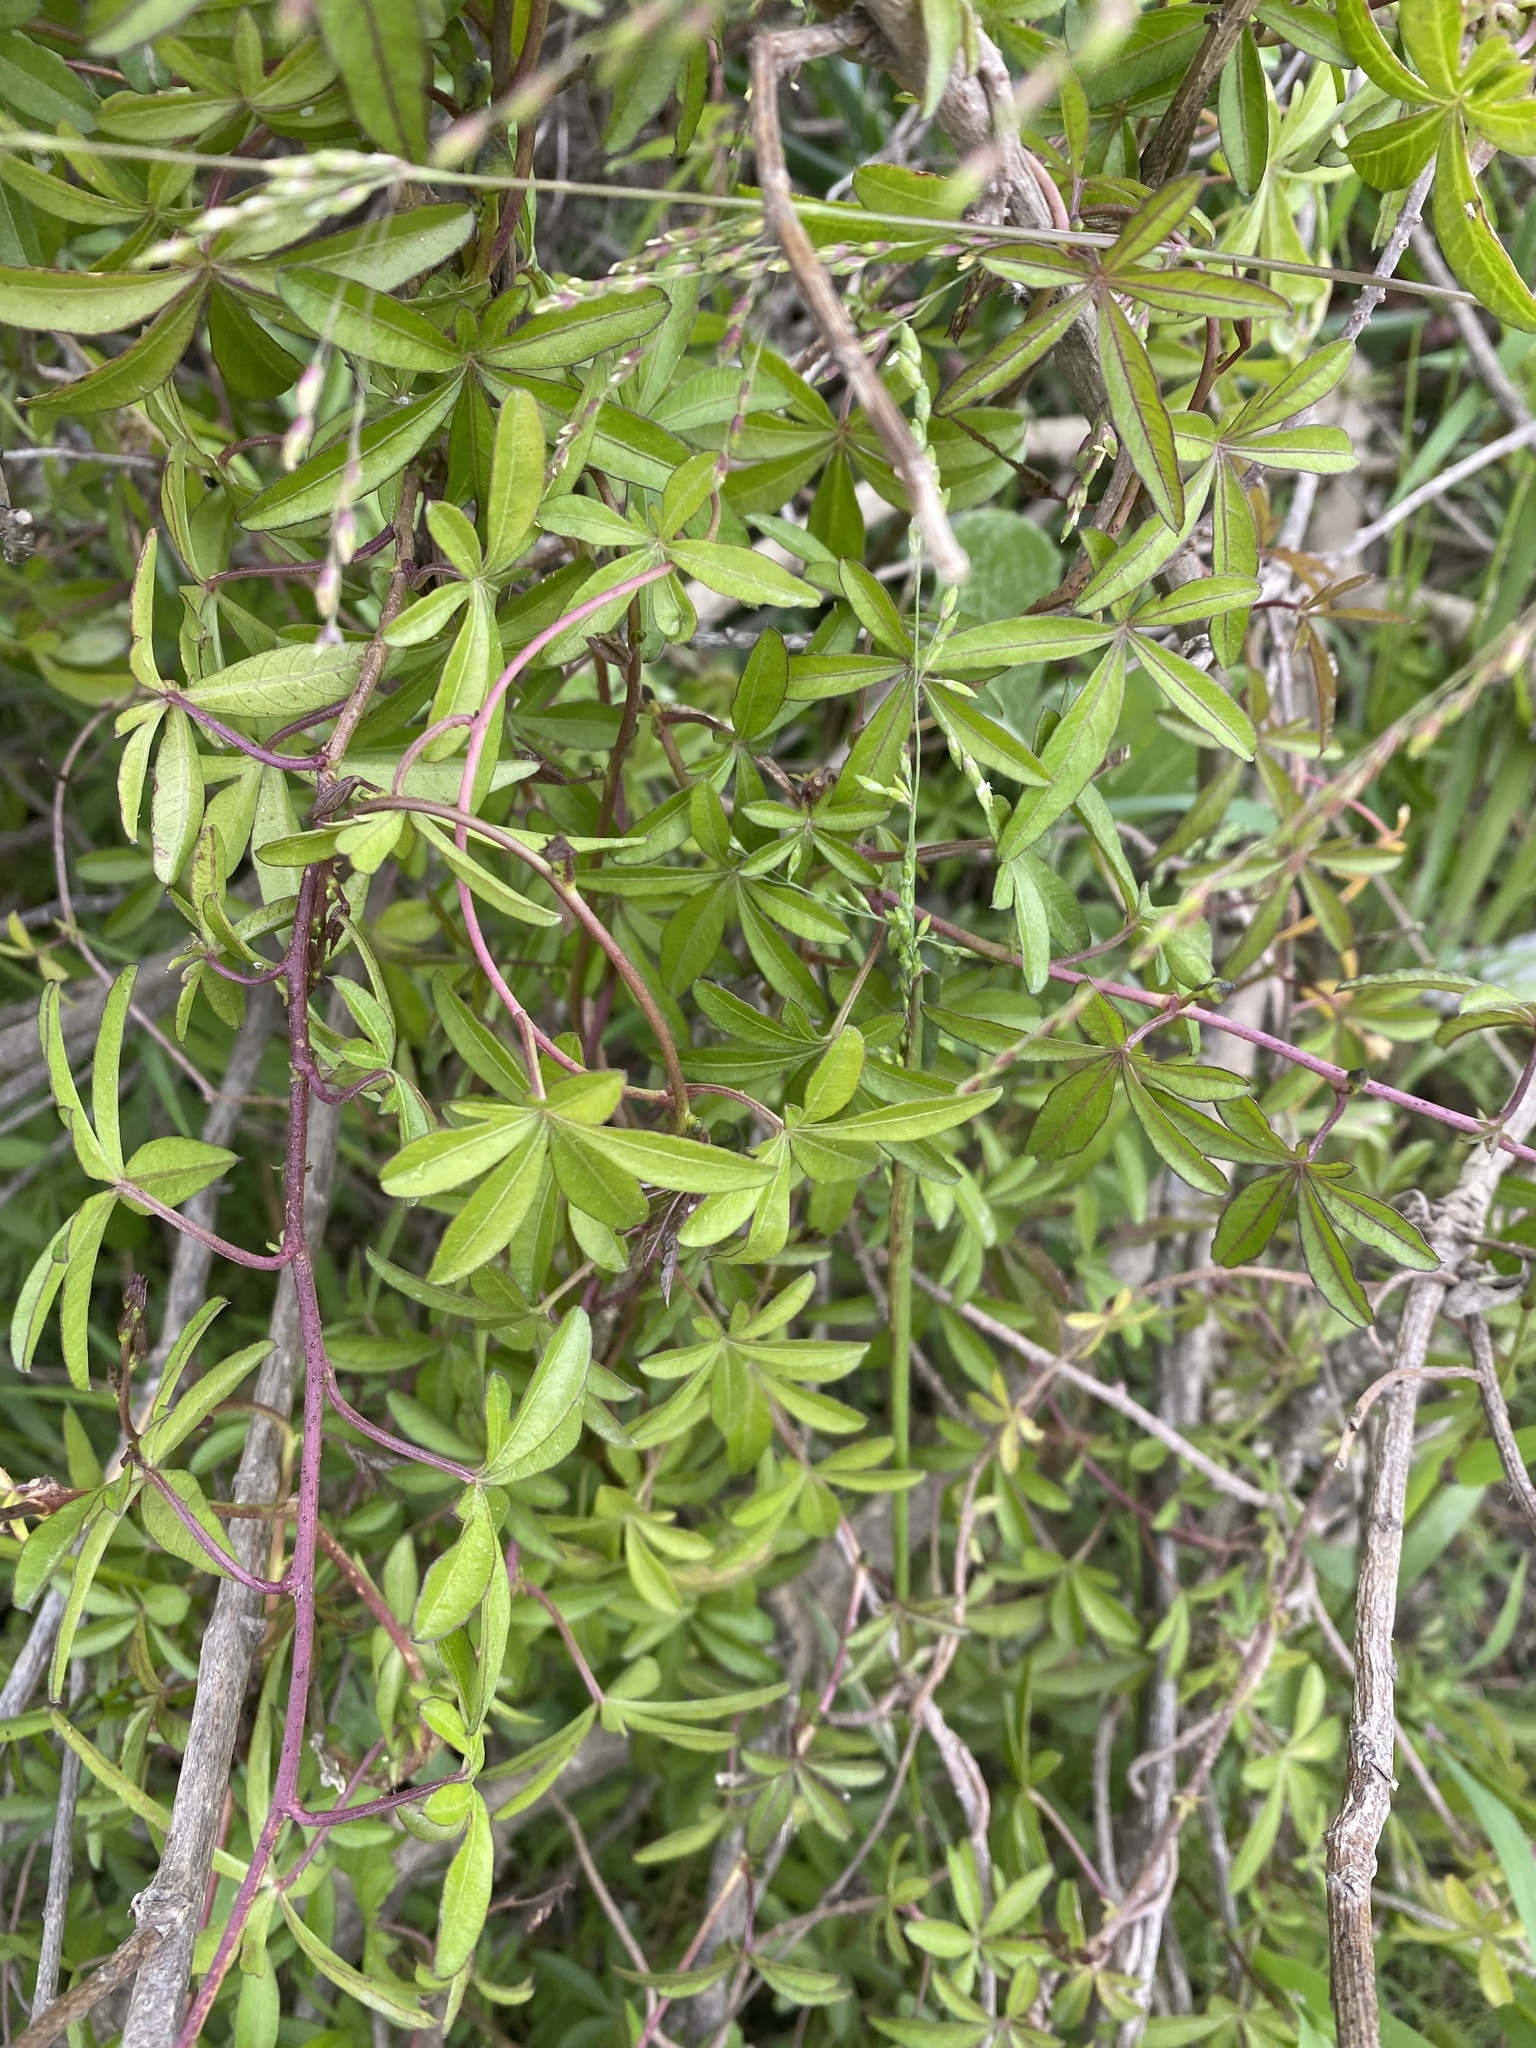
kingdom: Plantae
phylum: Tracheophyta
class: Magnoliopsida
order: Solanales
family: Convolvulaceae
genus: Ipomoea
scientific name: Ipomoea cairica
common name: Mile a minute vine
